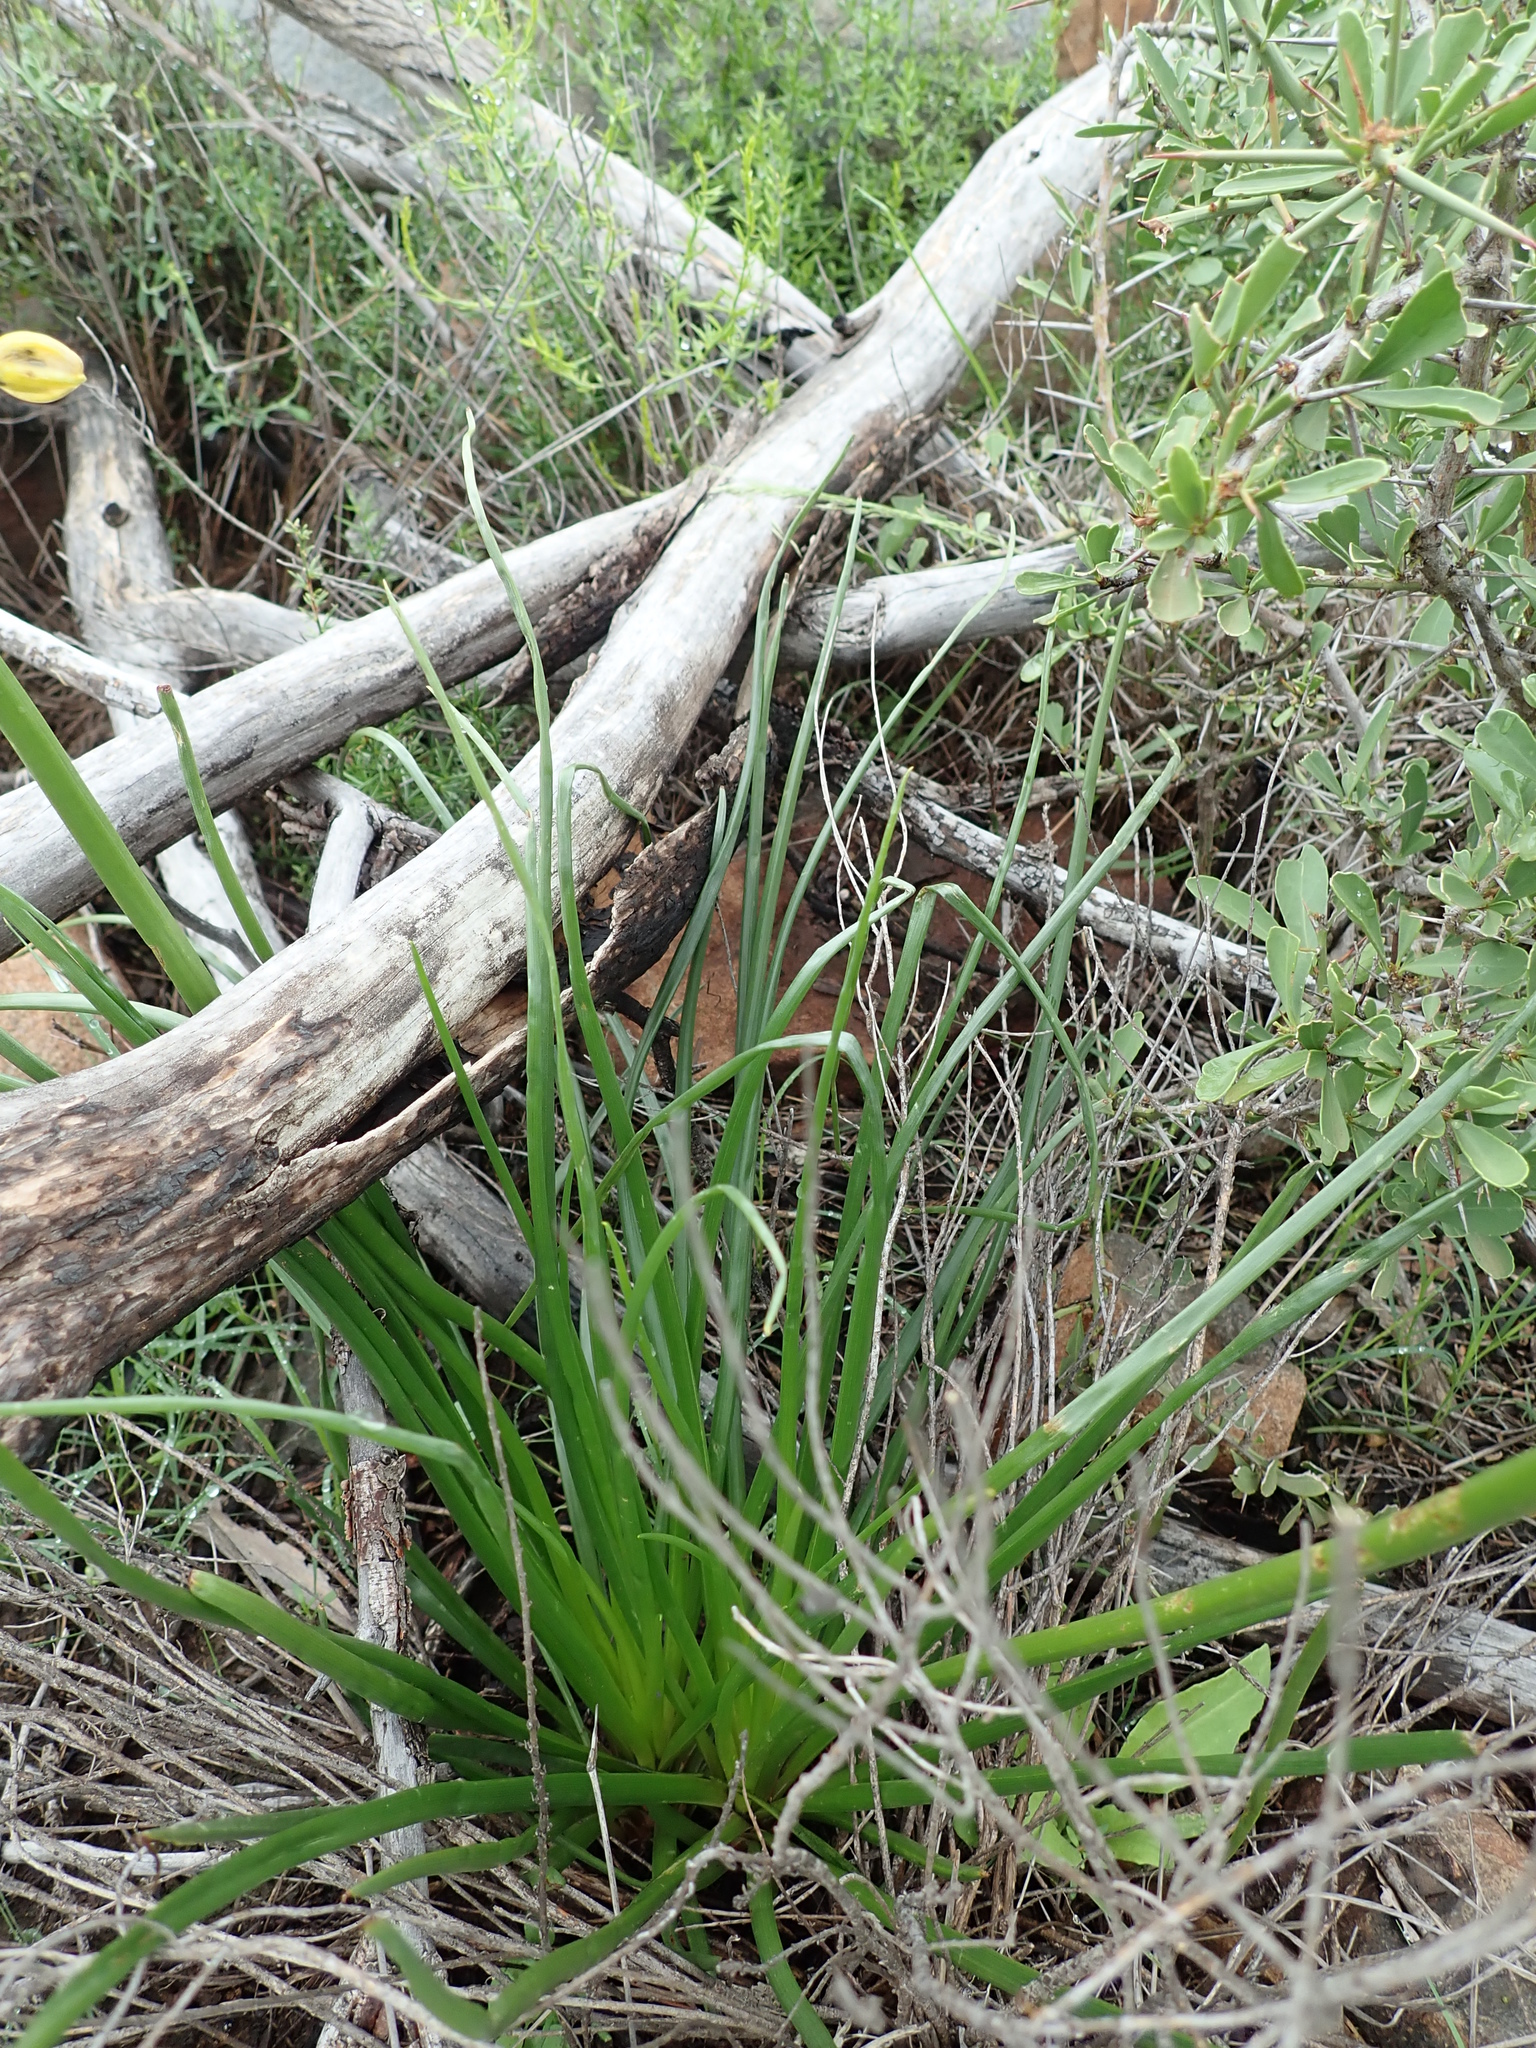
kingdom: Plantae
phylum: Tracheophyta
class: Liliopsida
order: Asparagales
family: Asphodelaceae
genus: Bulbine
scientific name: Bulbine abyssinica
